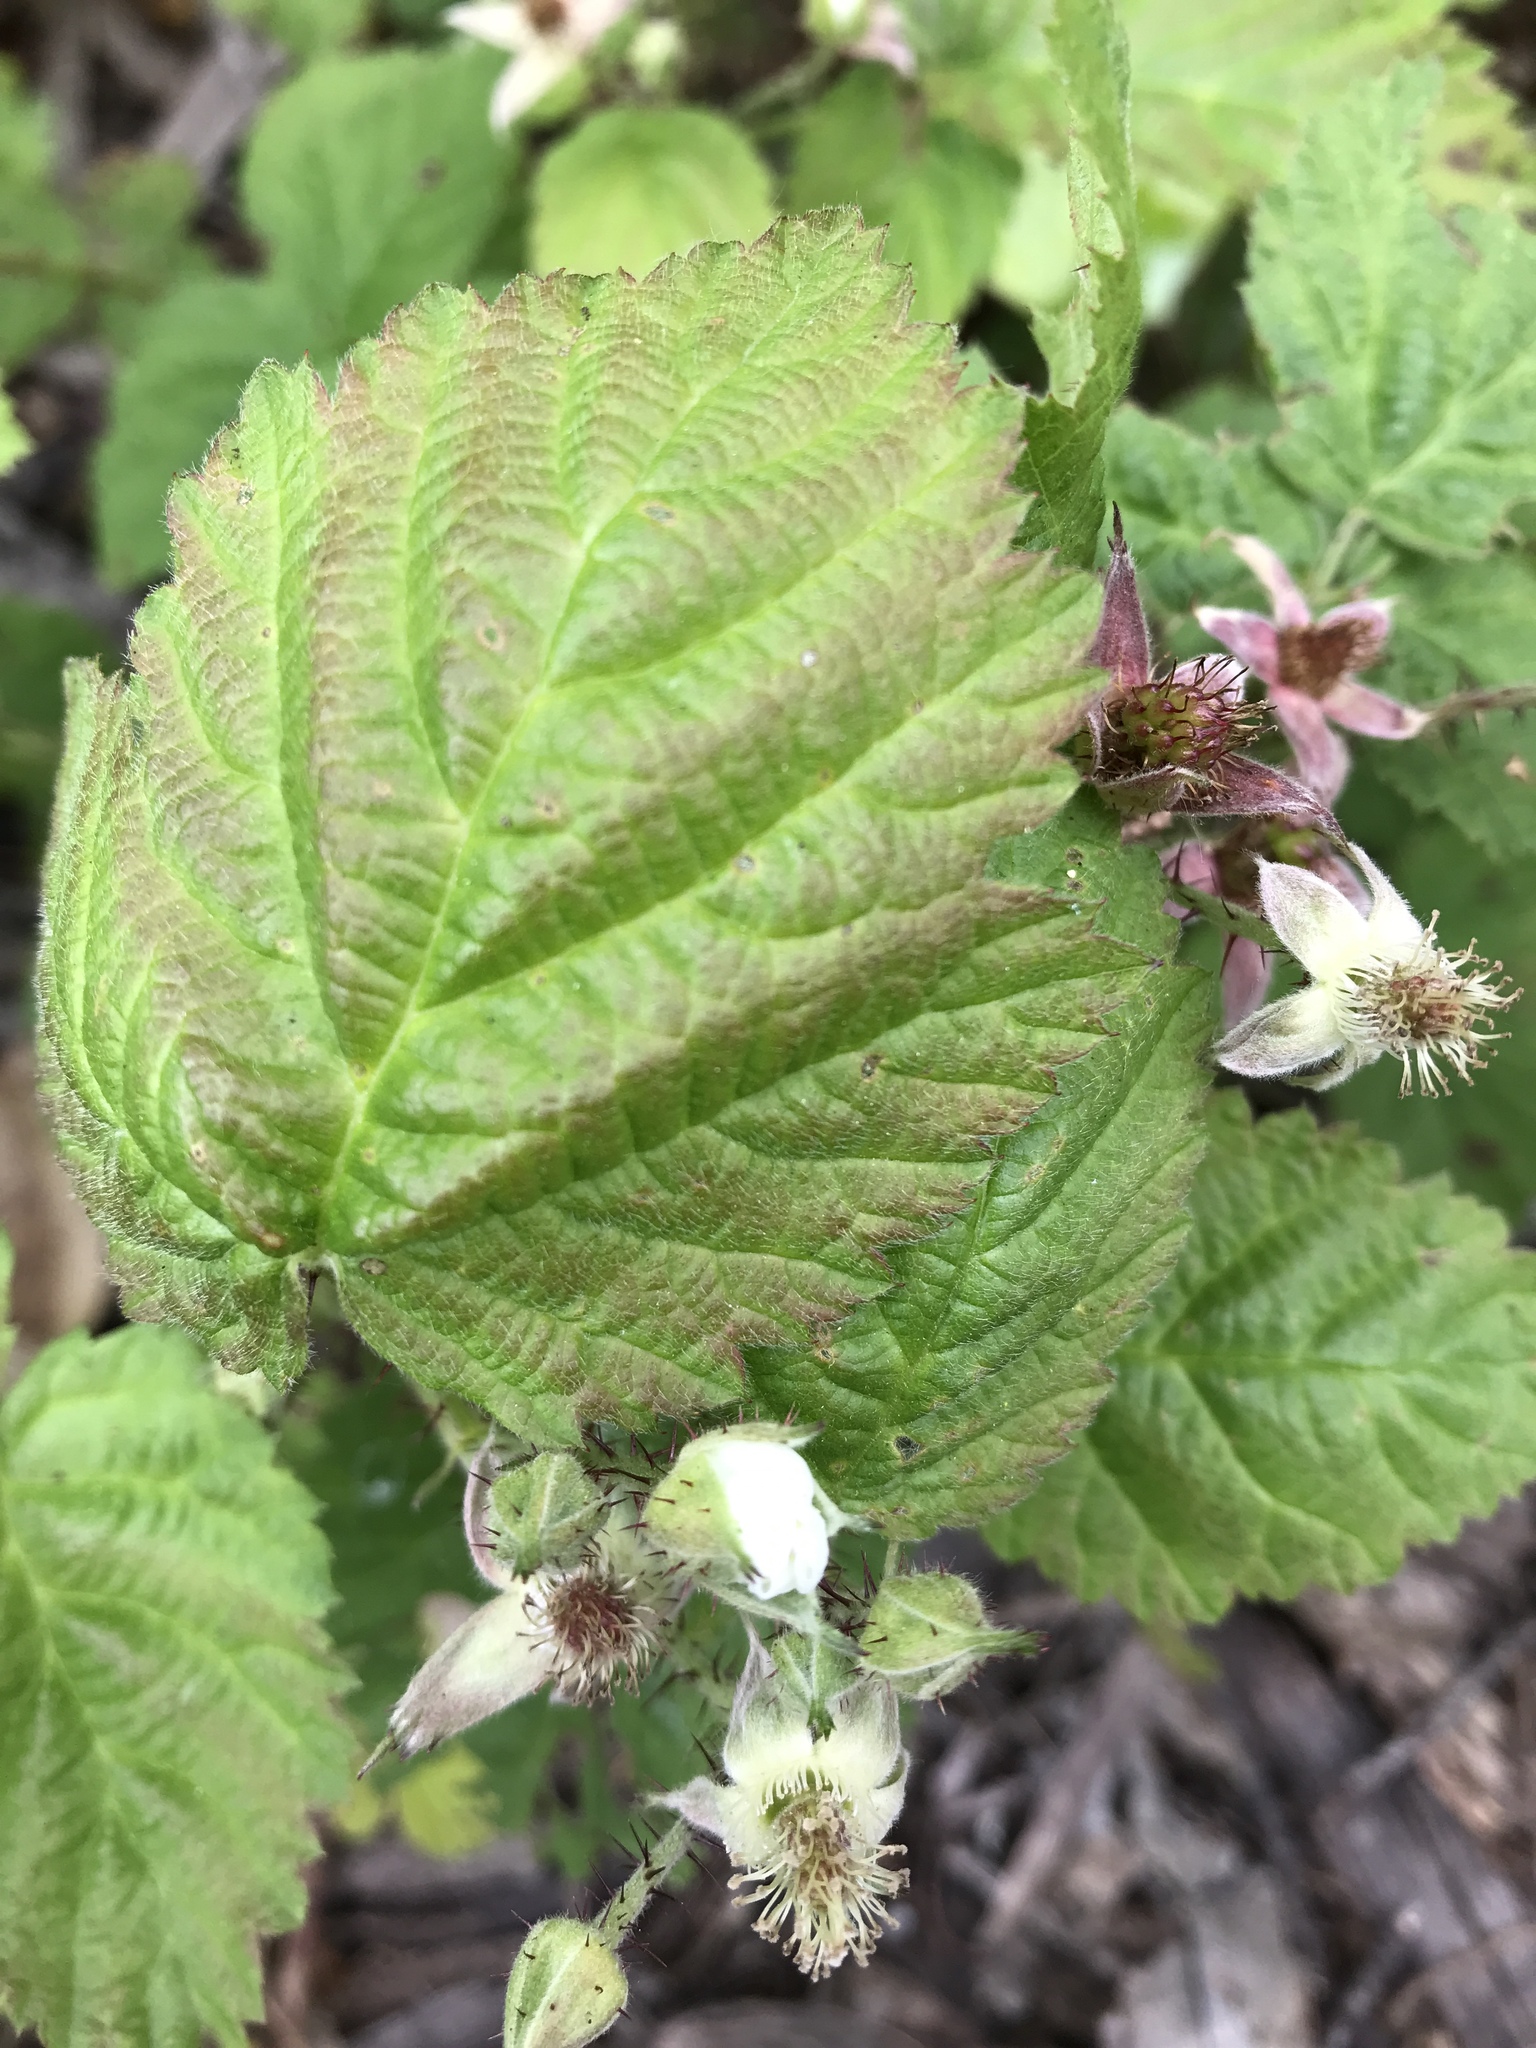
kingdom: Plantae
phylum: Tracheophyta
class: Magnoliopsida
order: Rosales
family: Rosaceae
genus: Rubus
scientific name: Rubus ursinus
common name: Pacific blackberry
